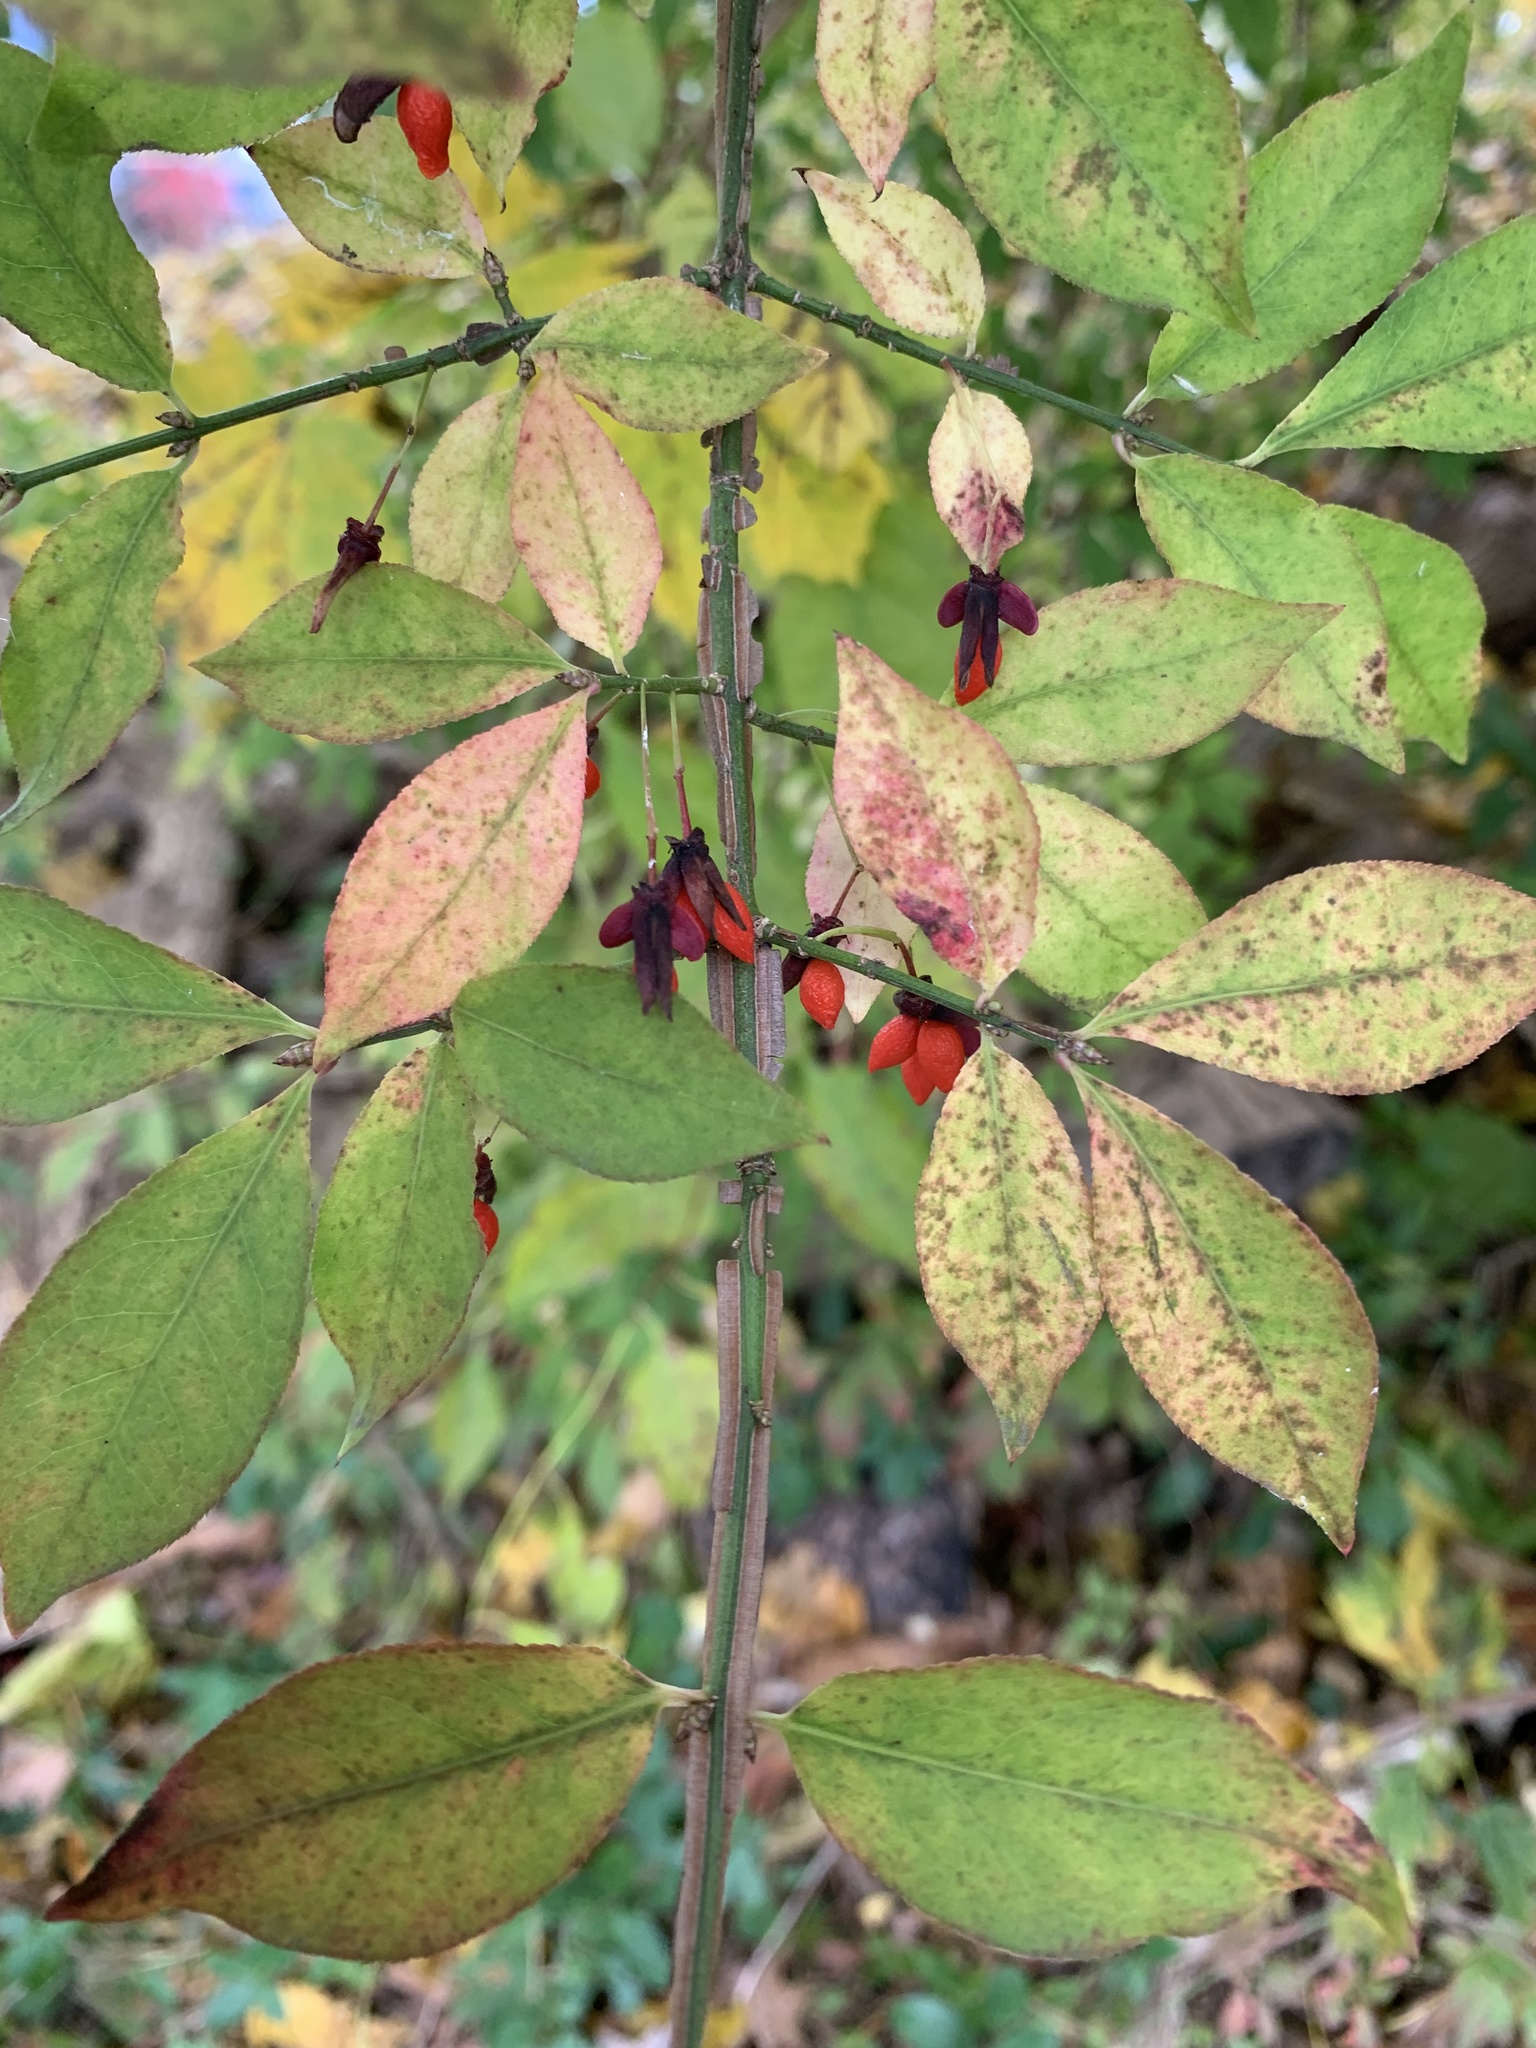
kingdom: Plantae
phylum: Tracheophyta
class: Magnoliopsida
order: Celastrales
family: Celastraceae
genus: Euonymus
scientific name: Euonymus alatus
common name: Winged euonymus
